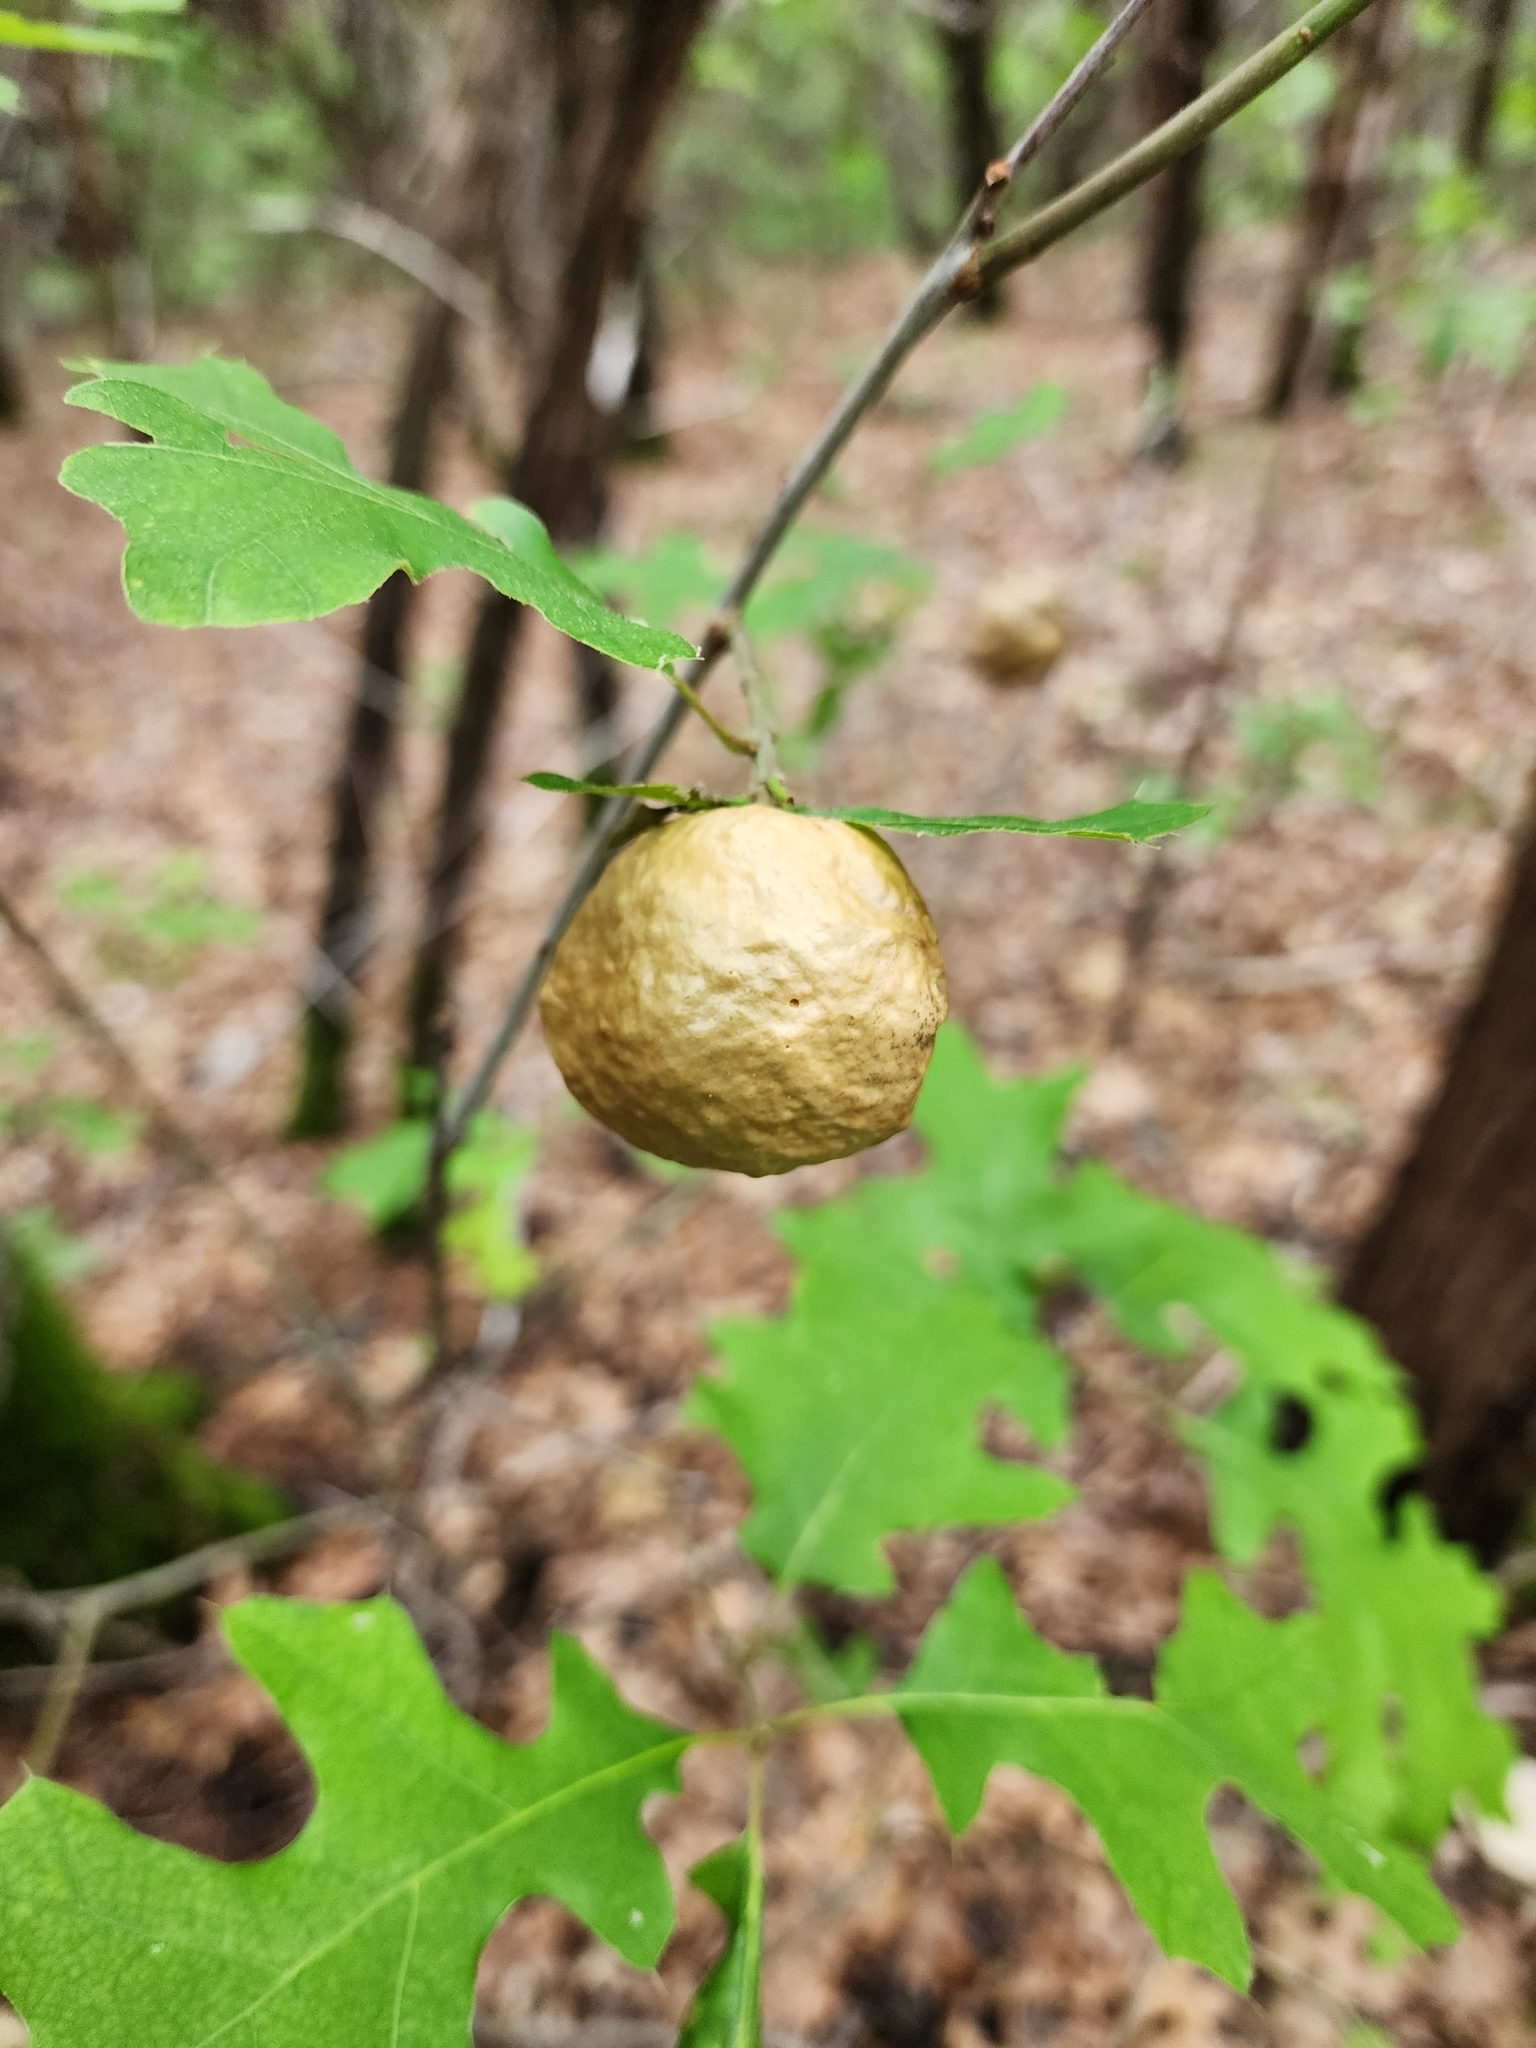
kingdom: Animalia
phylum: Arthropoda
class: Insecta
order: Hymenoptera
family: Cynipidae
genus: Amphibolips
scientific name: Amphibolips
